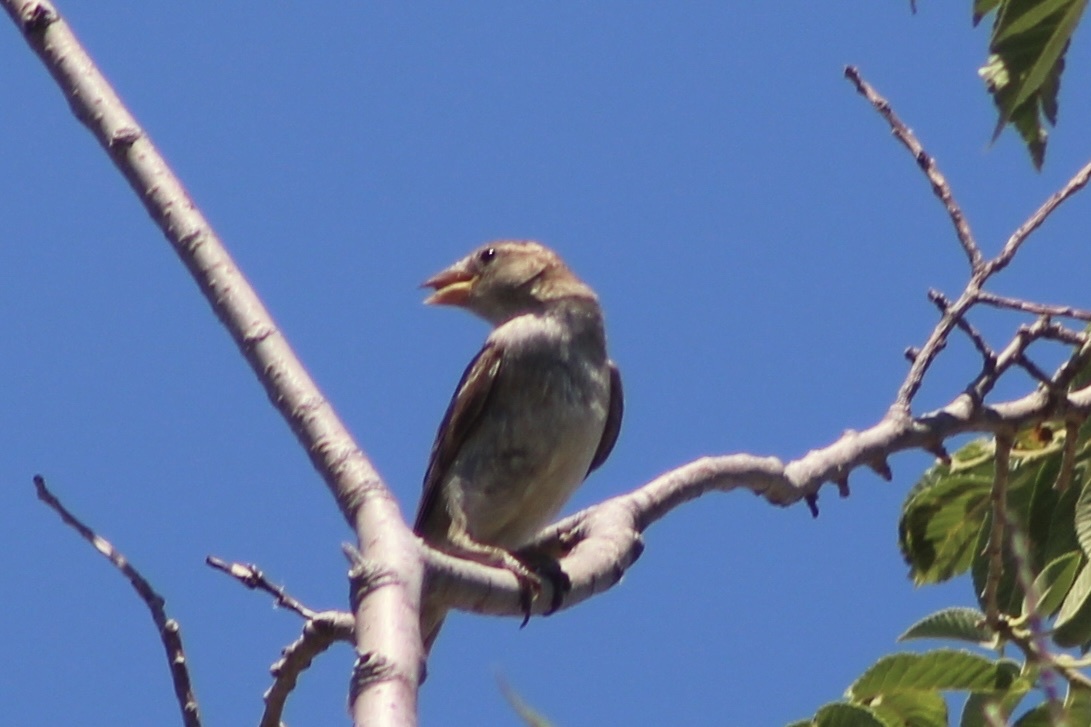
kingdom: Animalia
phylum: Chordata
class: Aves
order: Passeriformes
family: Passeridae
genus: Passer
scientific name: Passer domesticus
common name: House sparrow
